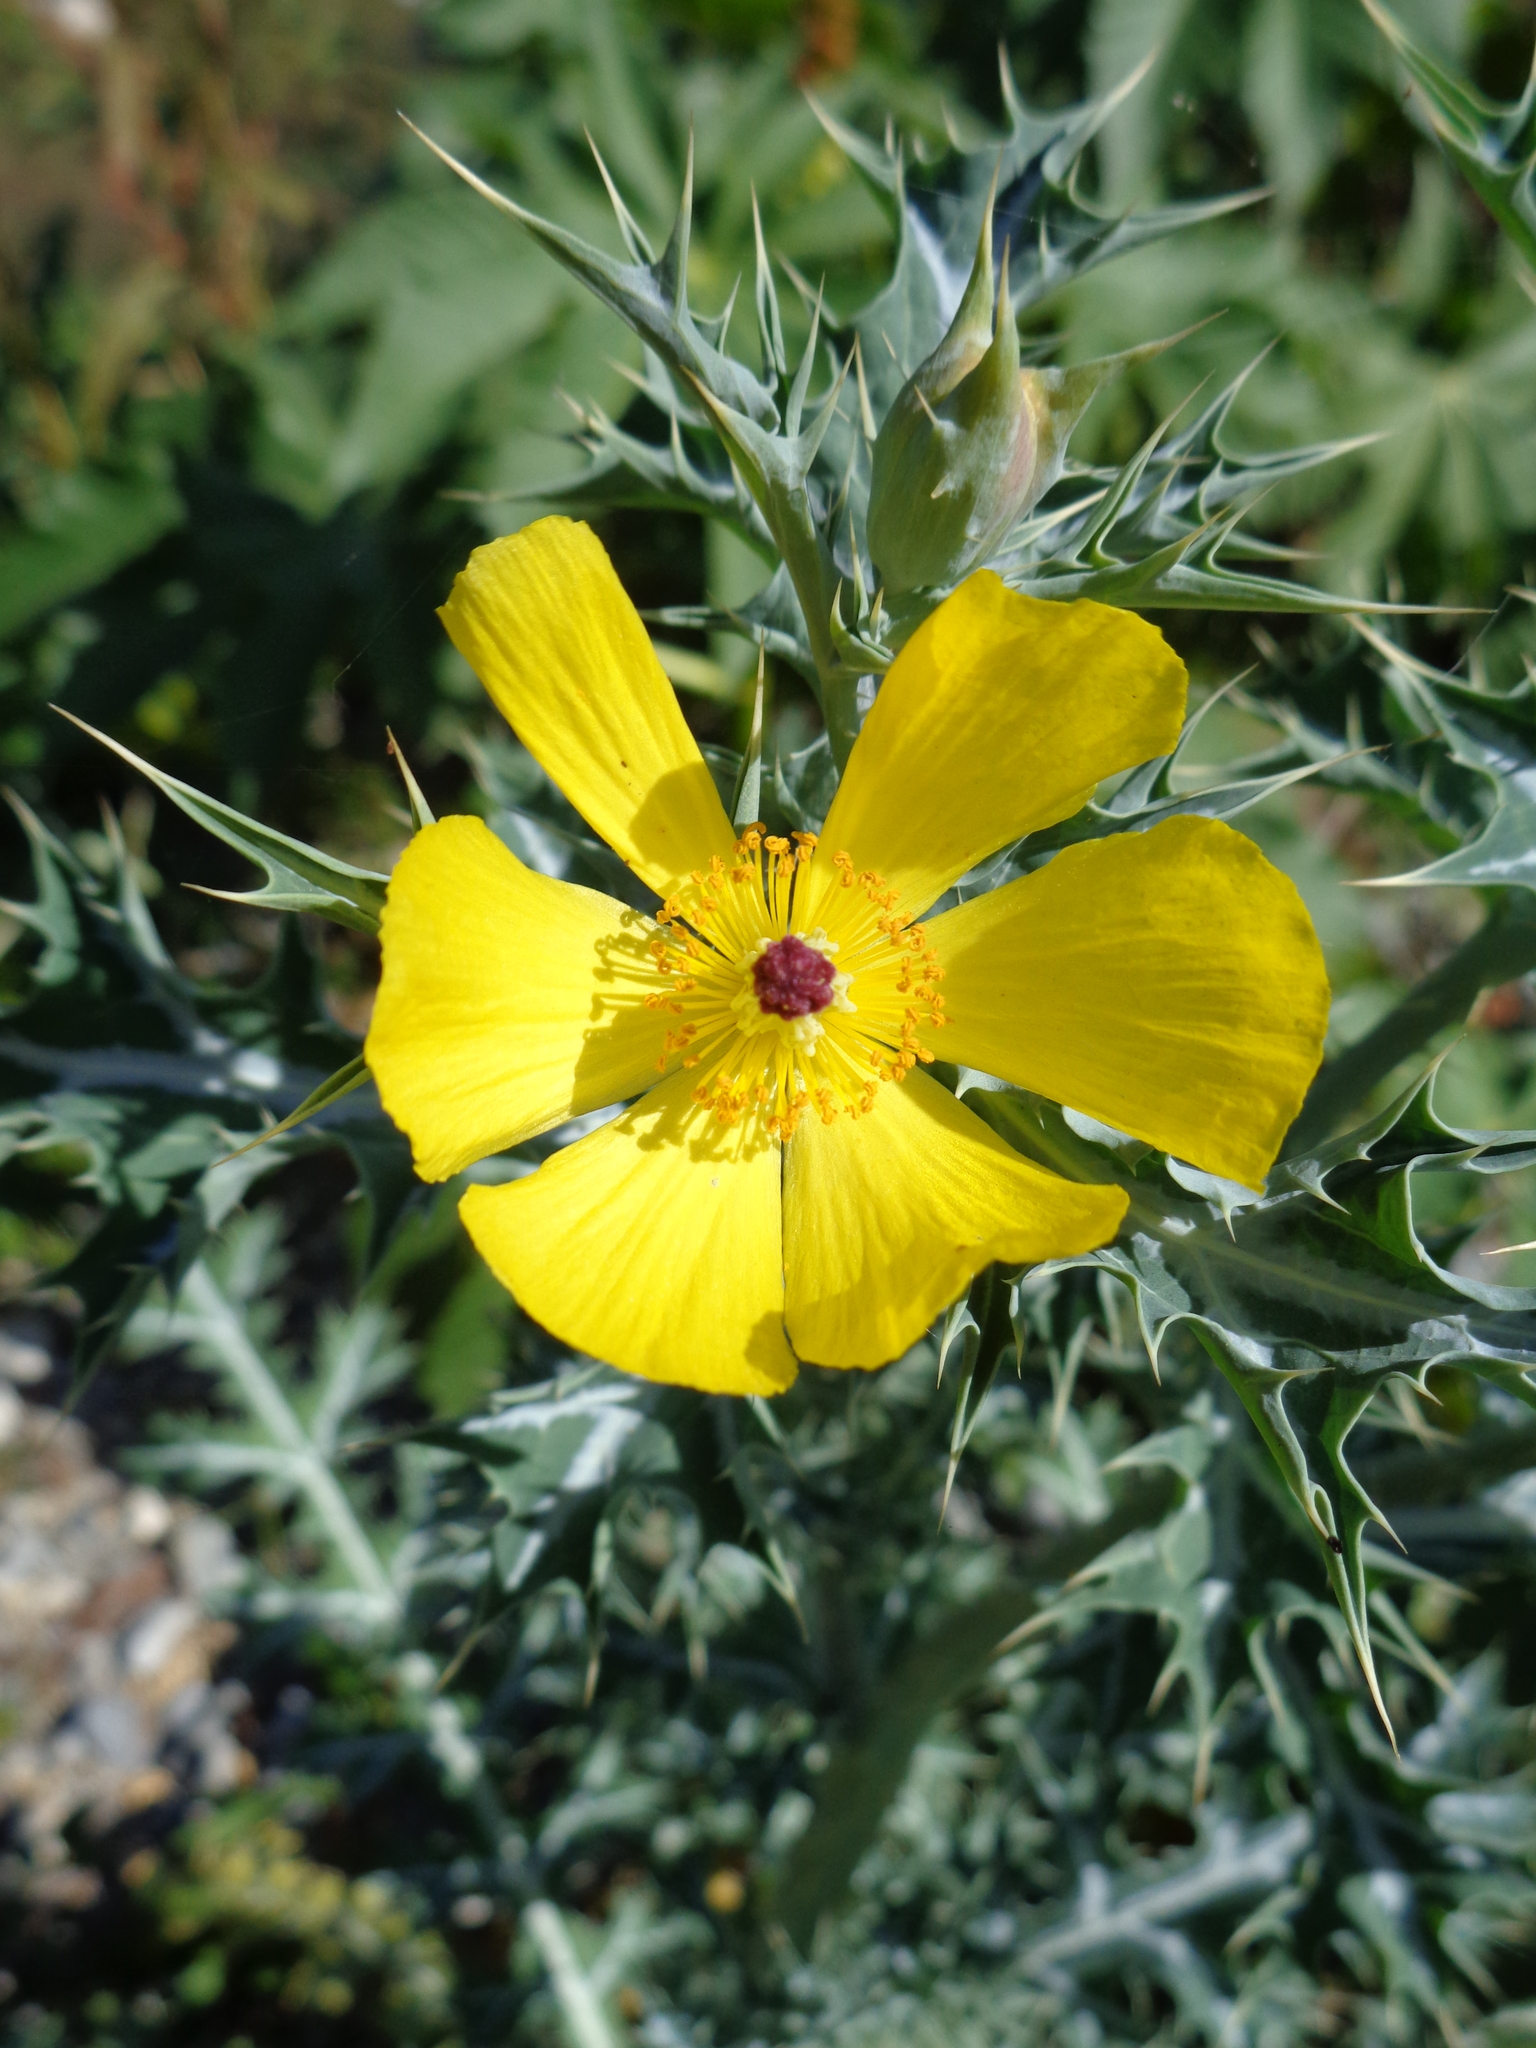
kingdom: Plantae
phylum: Tracheophyta
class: Magnoliopsida
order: Ranunculales
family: Papaveraceae
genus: Argemone
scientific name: Argemone mexicana
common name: Mexican poppy
